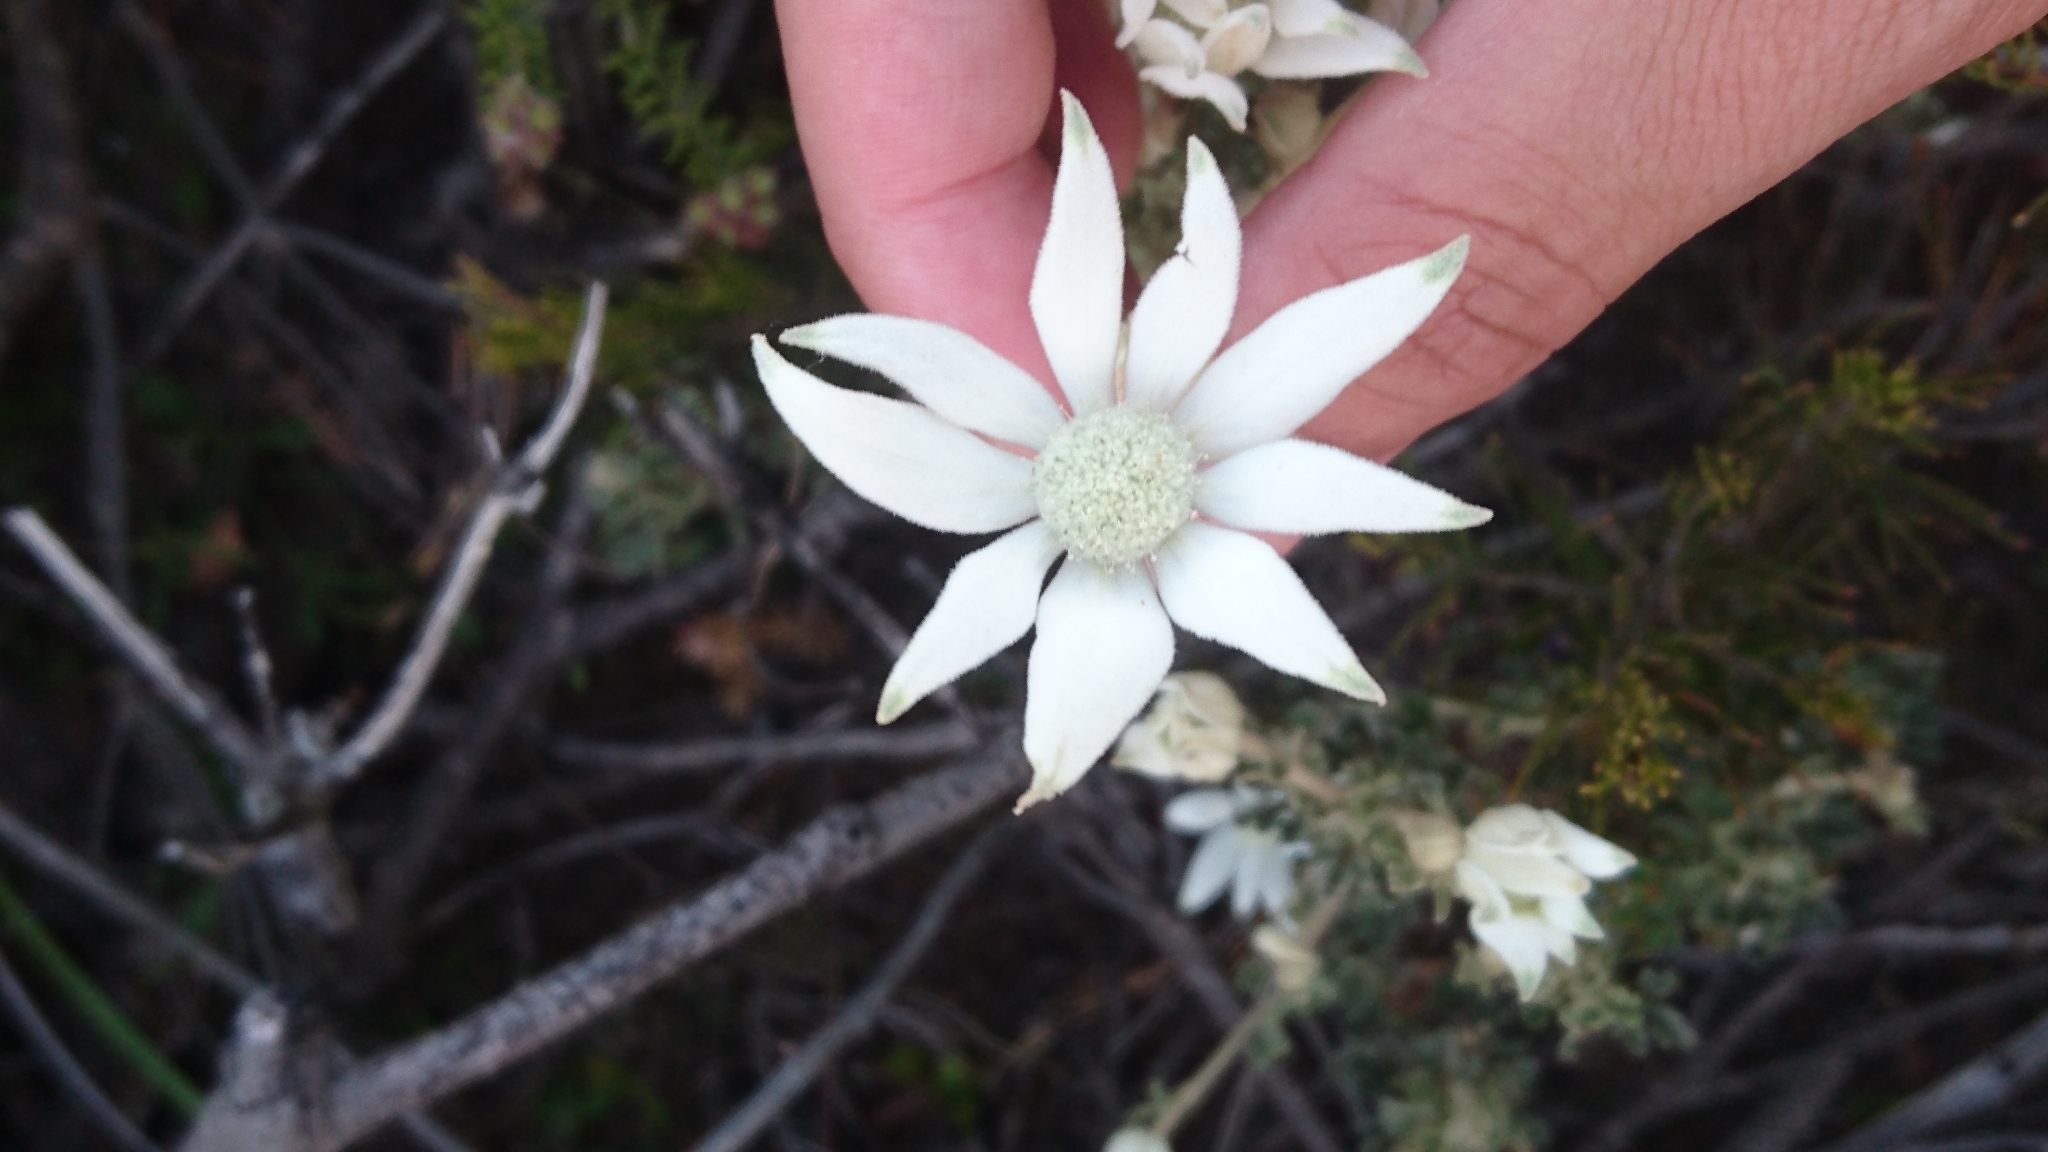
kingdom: Plantae
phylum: Tracheophyta
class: Magnoliopsida
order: Apiales
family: Apiaceae
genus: Actinotus
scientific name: Actinotus helianthi
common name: Flannel-flower
